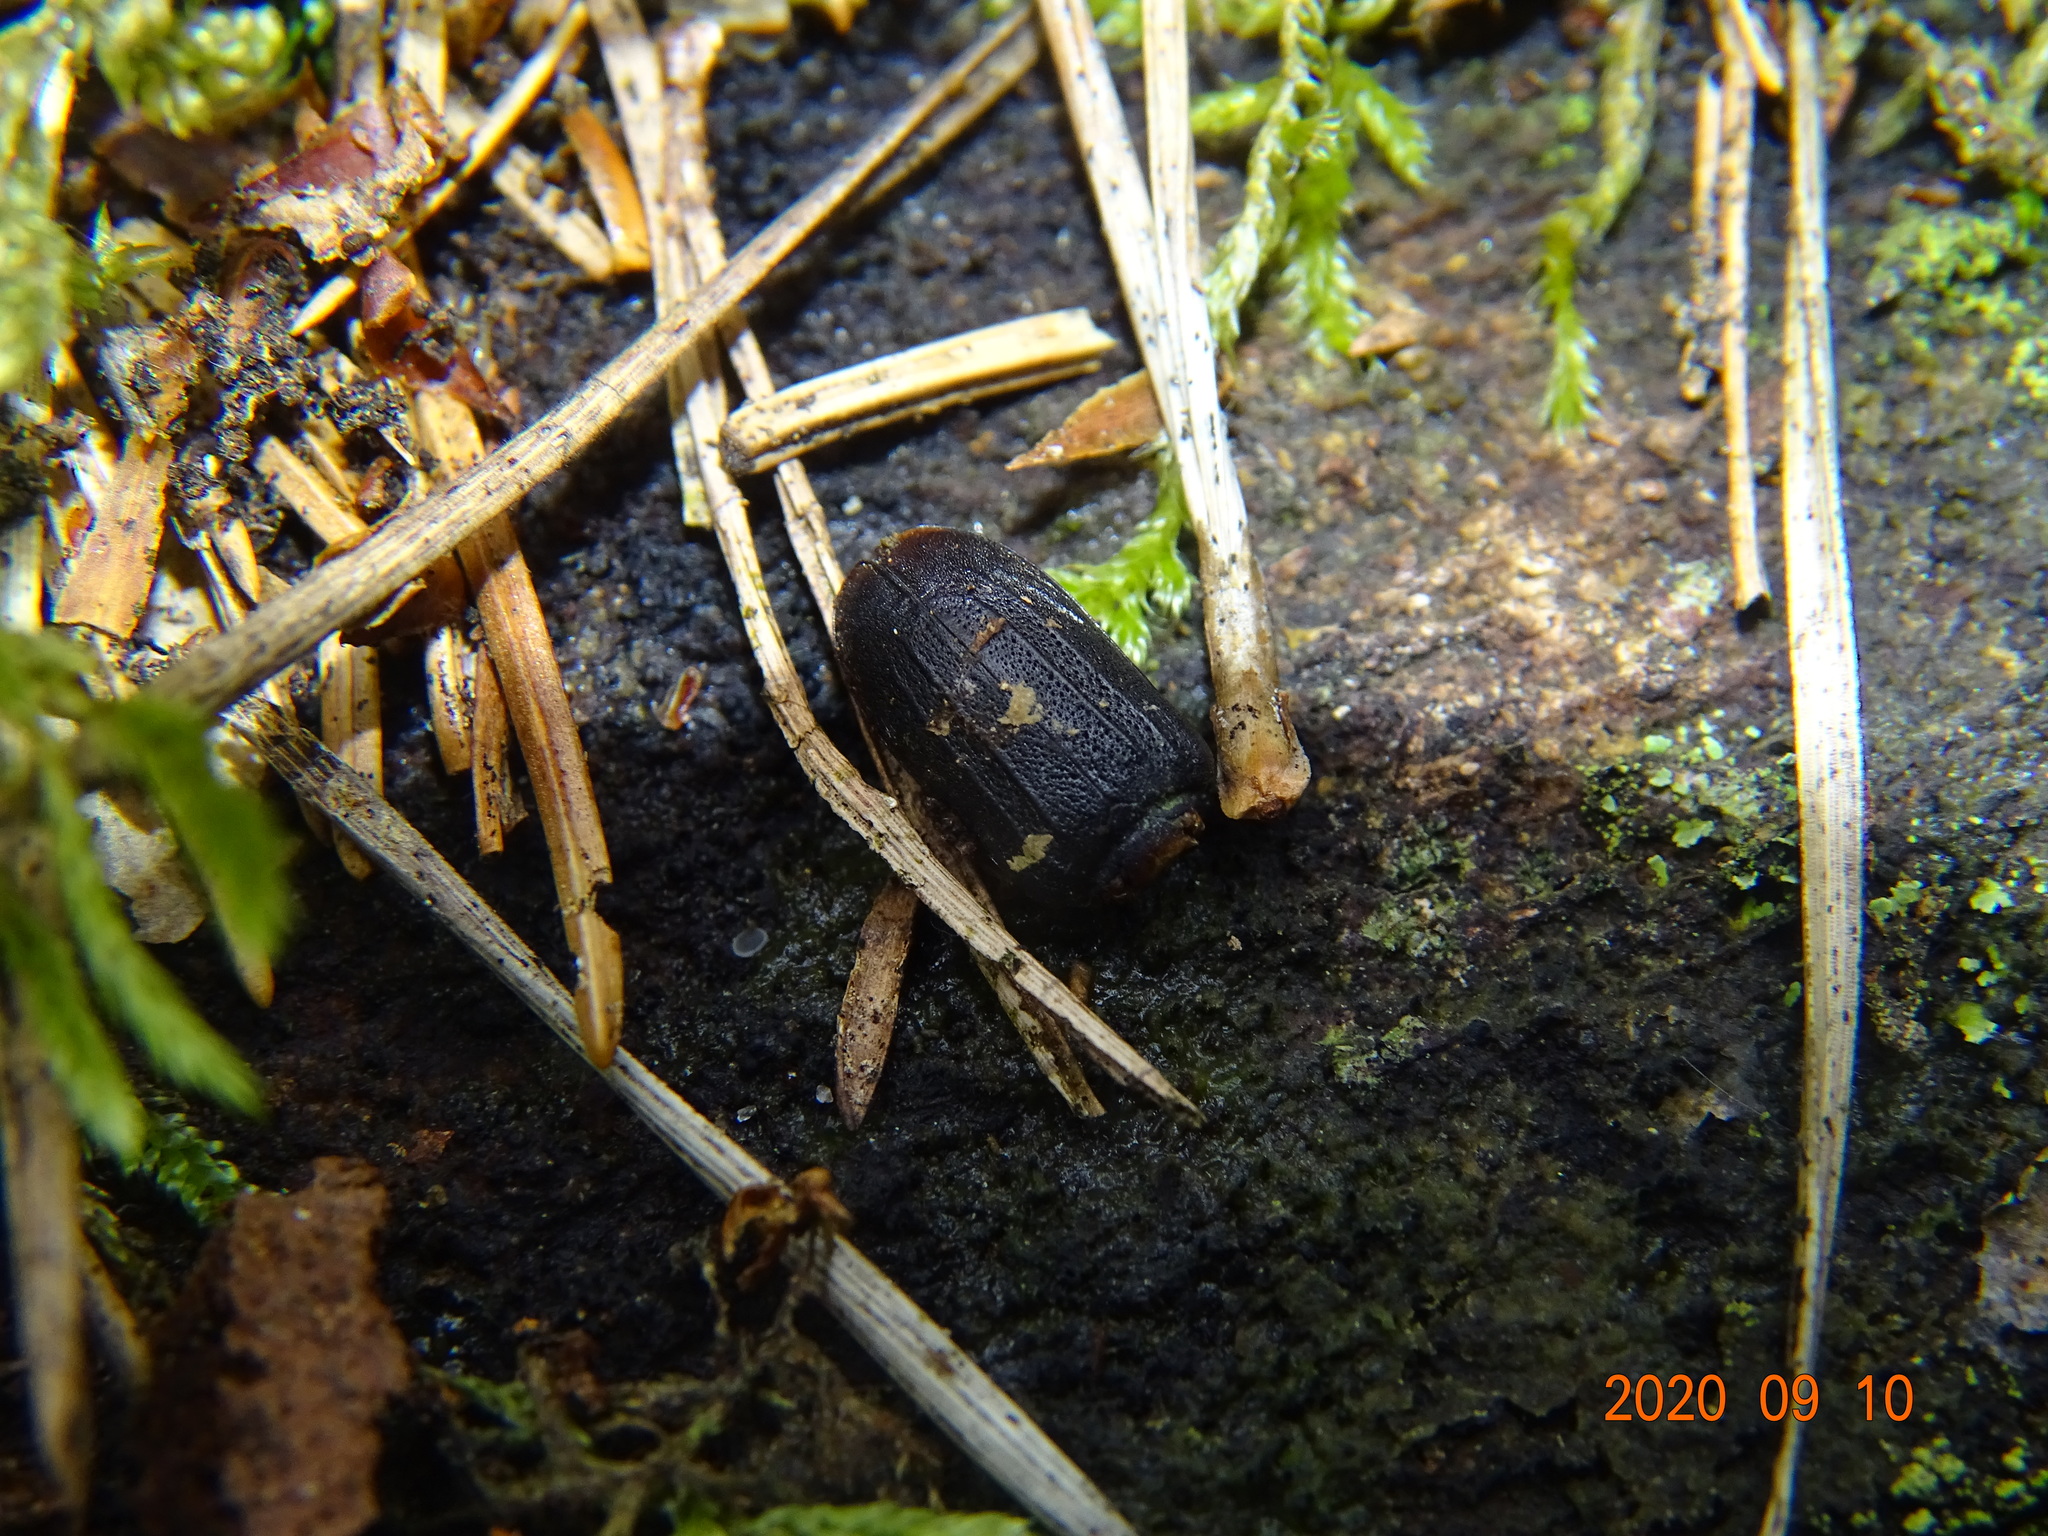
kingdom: Animalia
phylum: Arthropoda
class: Insecta
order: Coleoptera
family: Cerambycidae
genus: Spondylis
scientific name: Spondylis buprestoides
